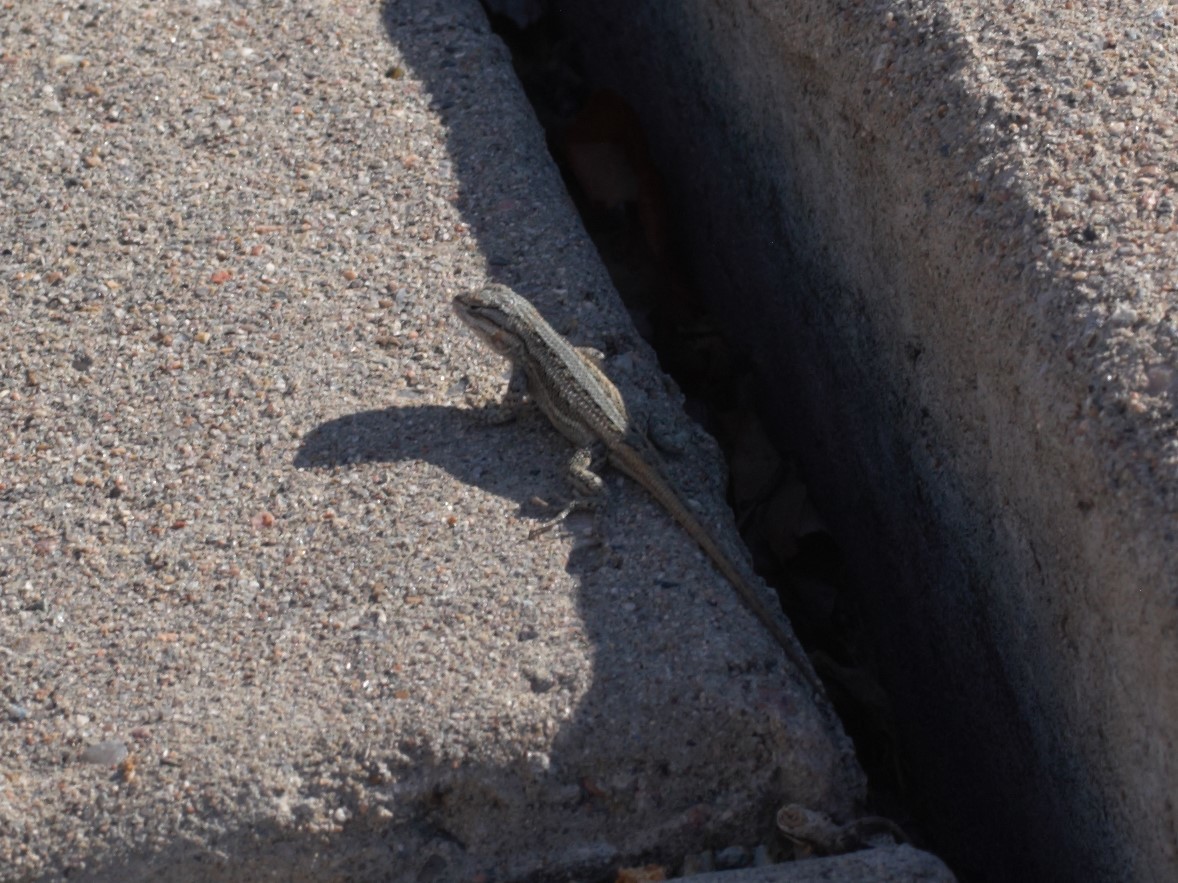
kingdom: Animalia
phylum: Chordata
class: Squamata
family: Phrynosomatidae
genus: Sceloporus
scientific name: Sceloporus cowlesi
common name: White sands prairie lizard
